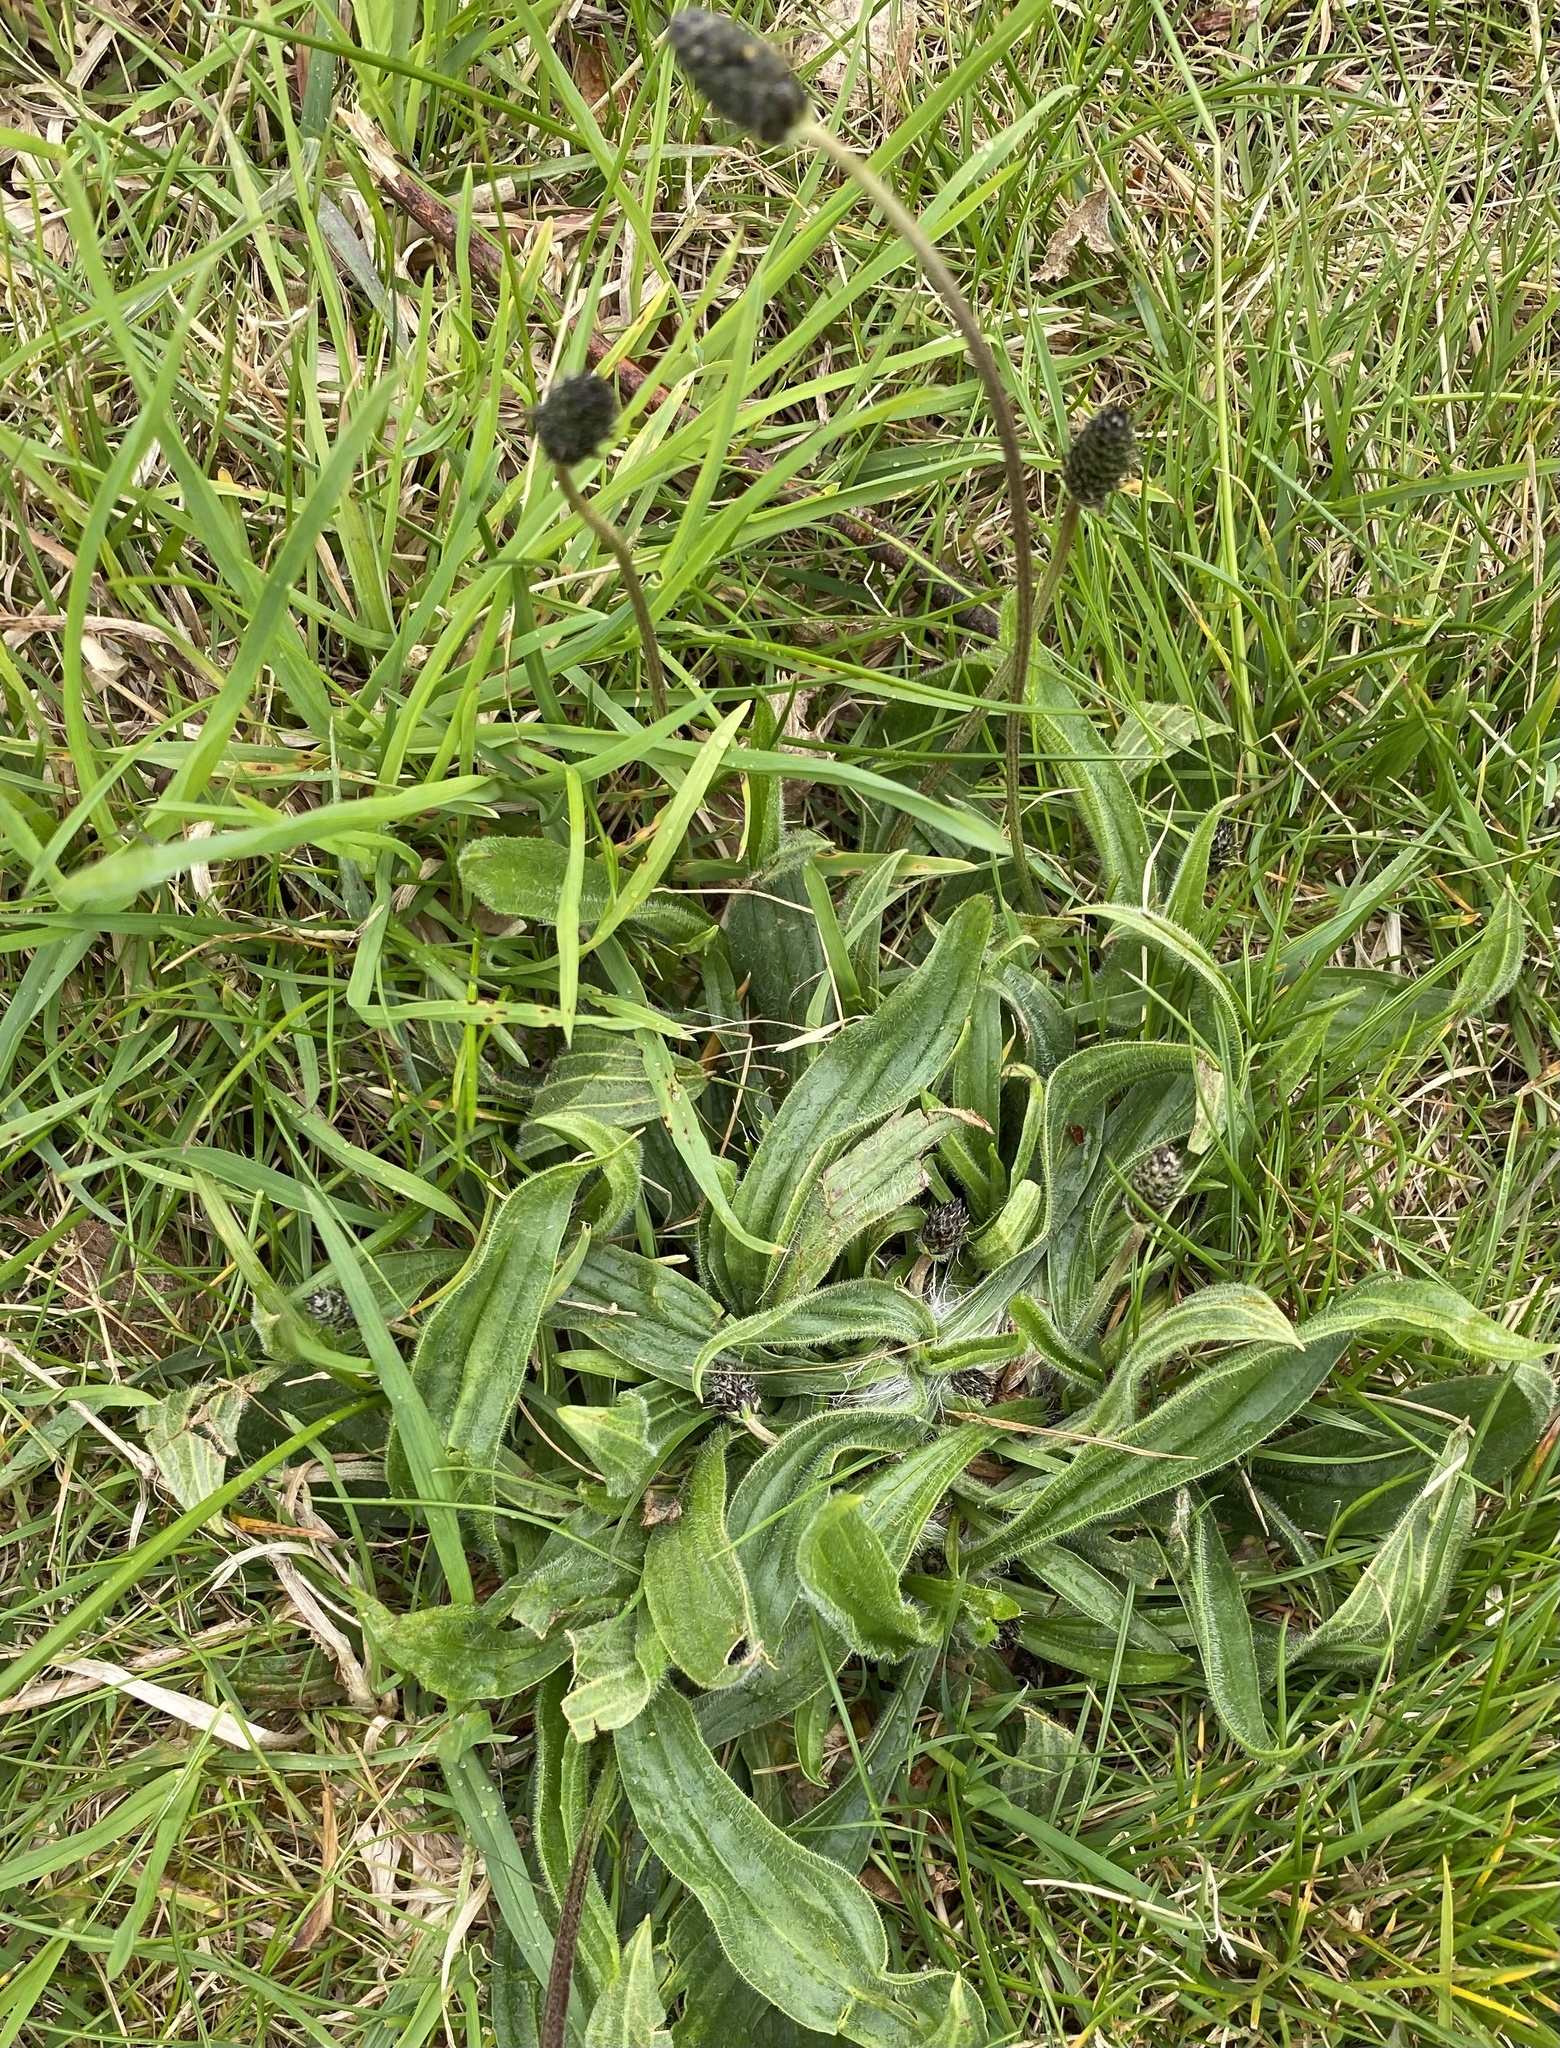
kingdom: Plantae
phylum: Tracheophyta
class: Magnoliopsida
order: Lamiales
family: Plantaginaceae
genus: Plantago
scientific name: Plantago lanceolata
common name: Ribwort plantain
